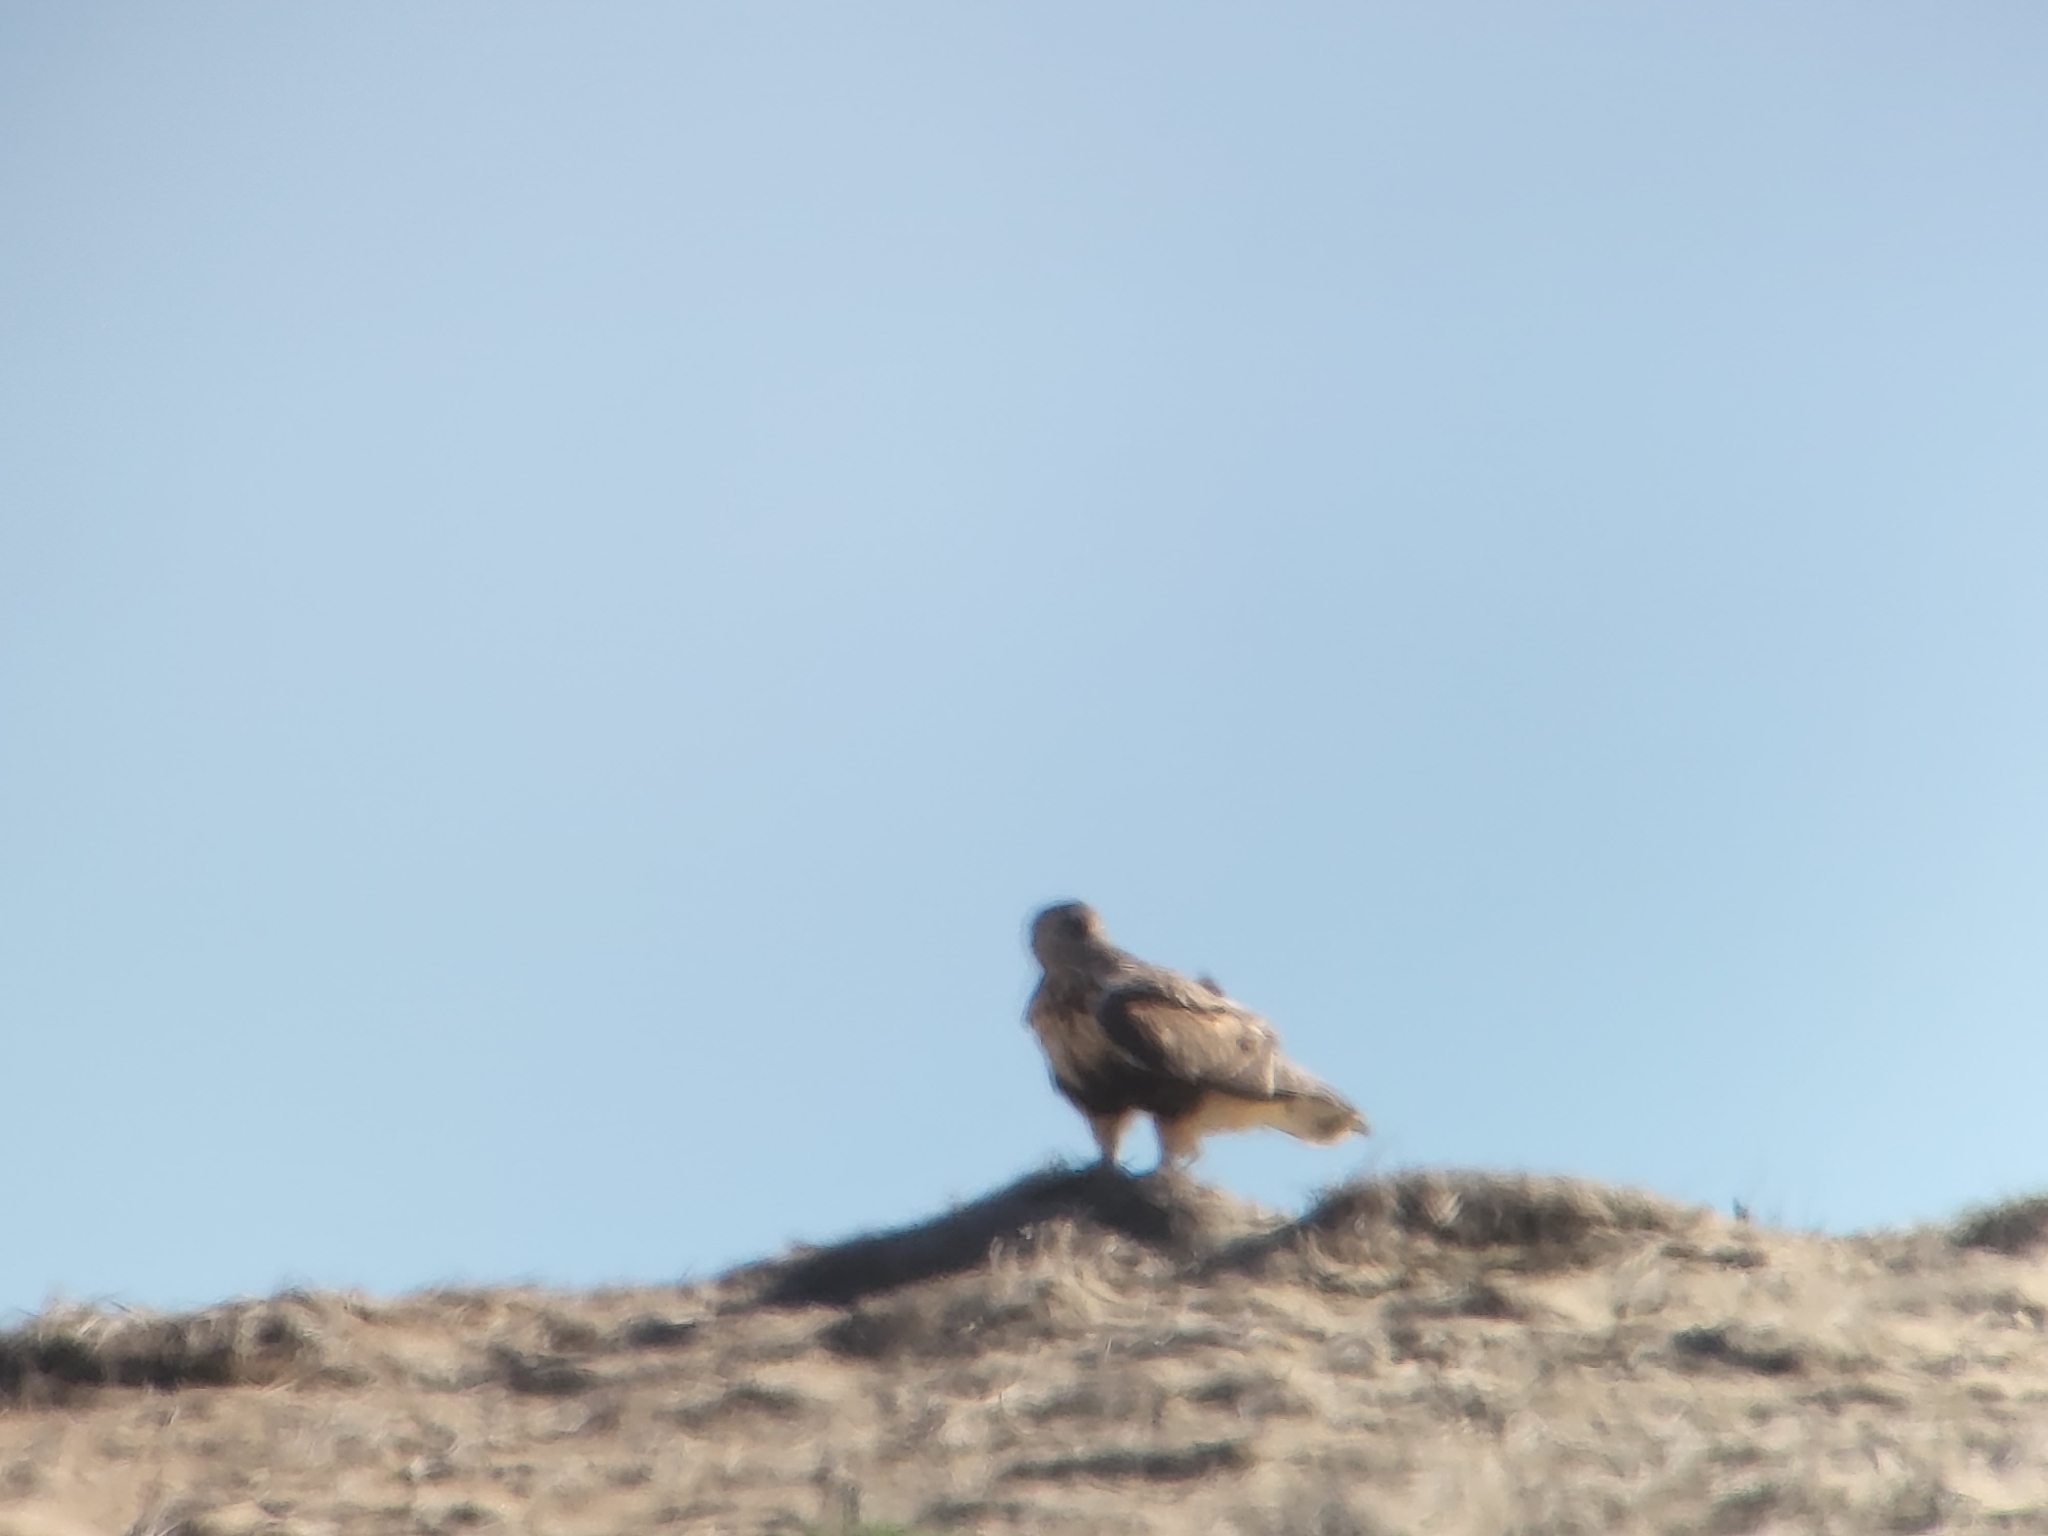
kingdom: Animalia
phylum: Chordata
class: Aves
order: Accipitriformes
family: Accipitridae
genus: Buteo
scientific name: Buteo lagopus
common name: Rough-legged buzzard
